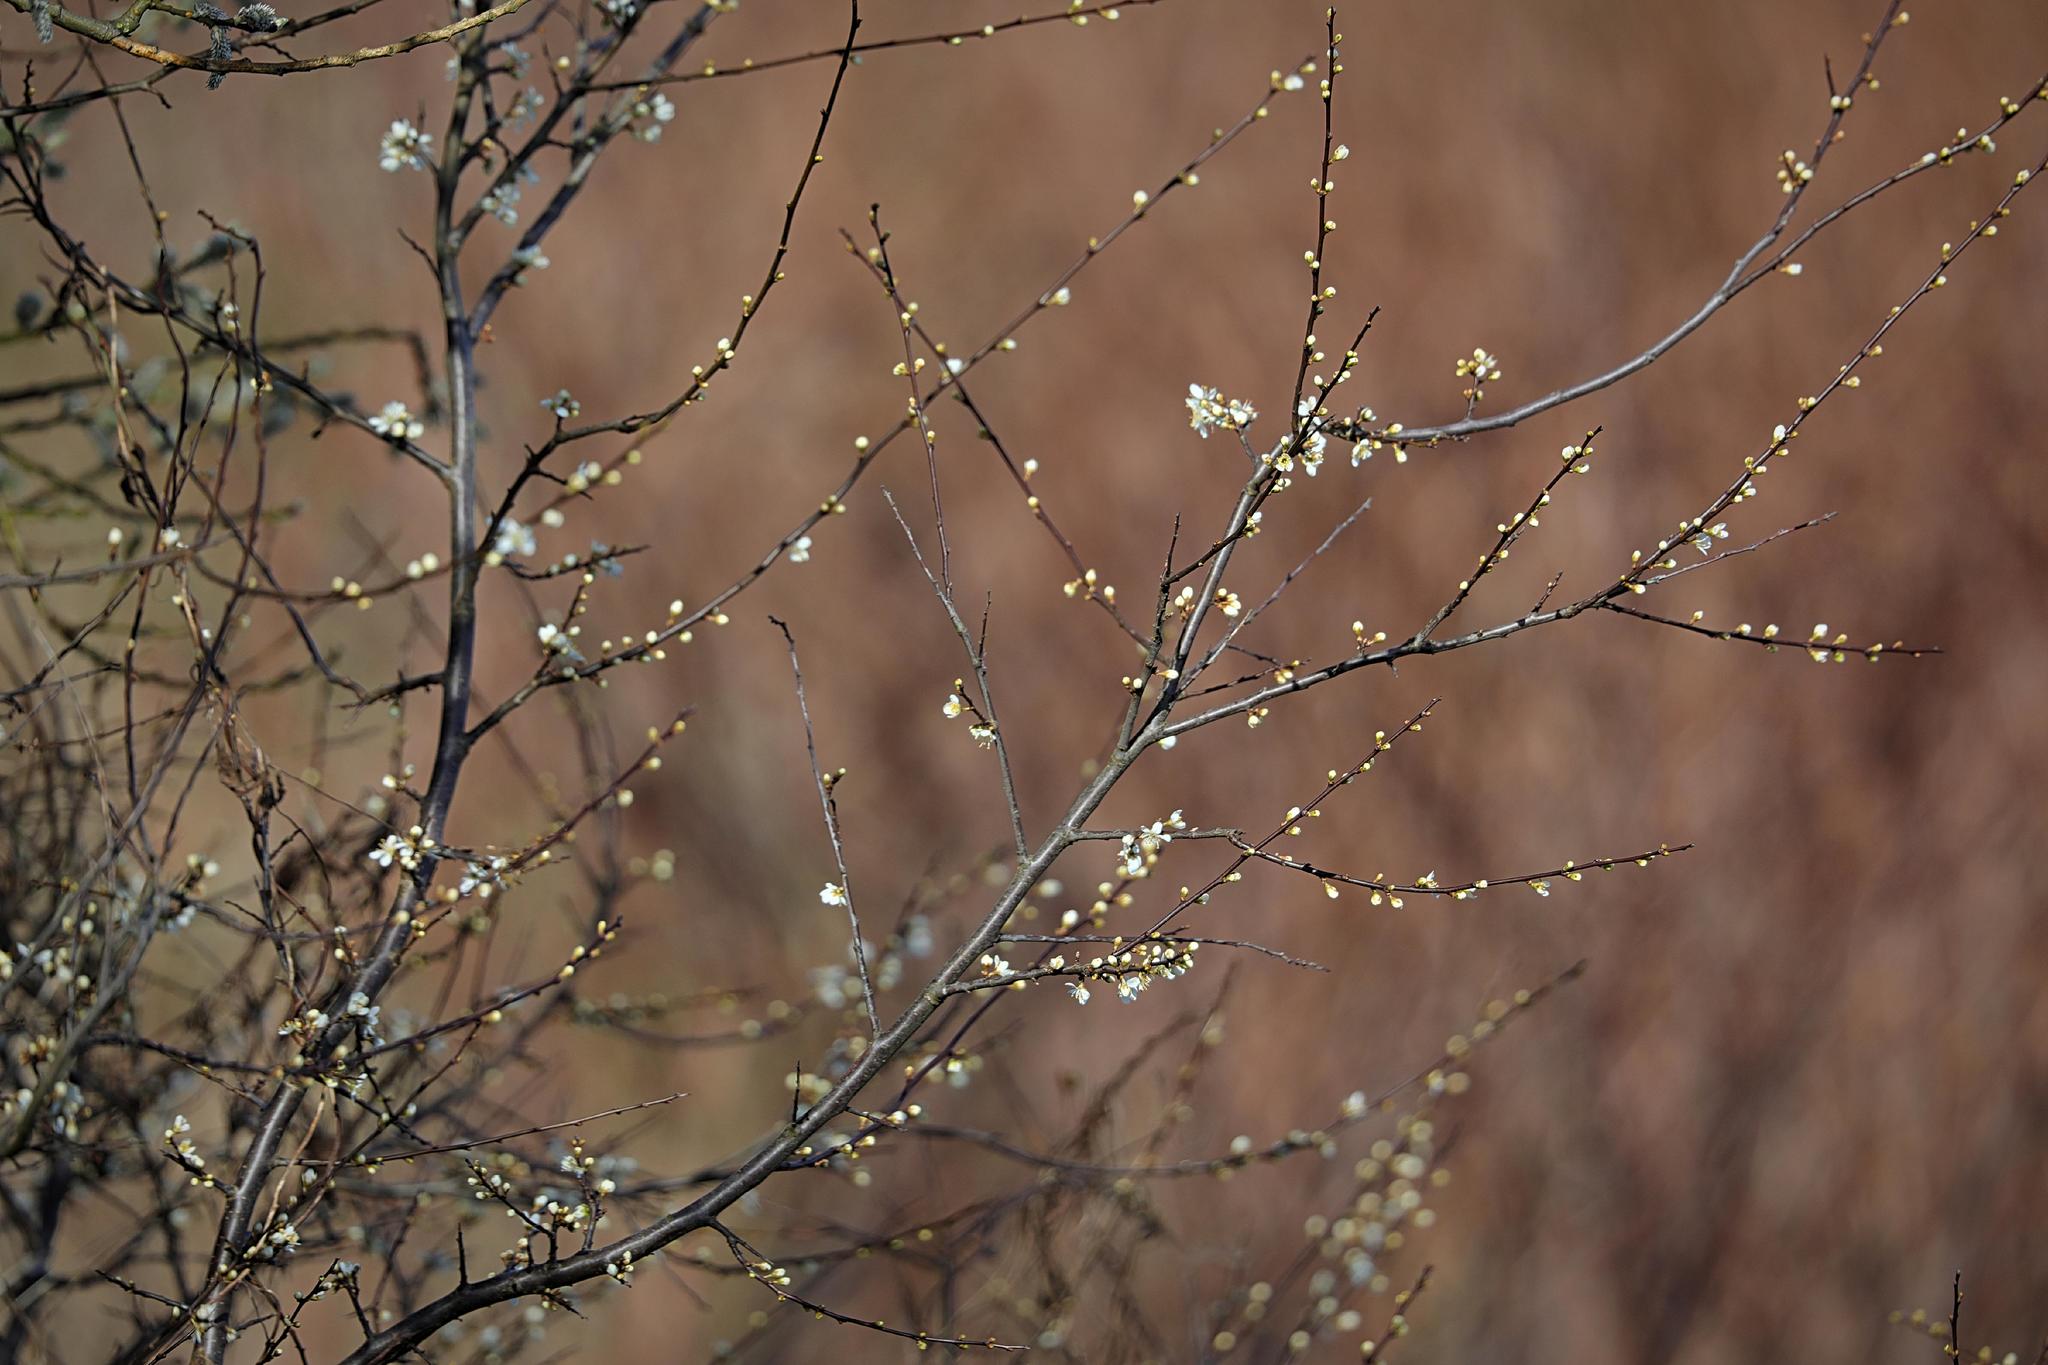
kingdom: Plantae
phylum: Tracheophyta
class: Magnoliopsida
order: Rosales
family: Rosaceae
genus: Prunus
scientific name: Prunus spinosa
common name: Blackthorn
